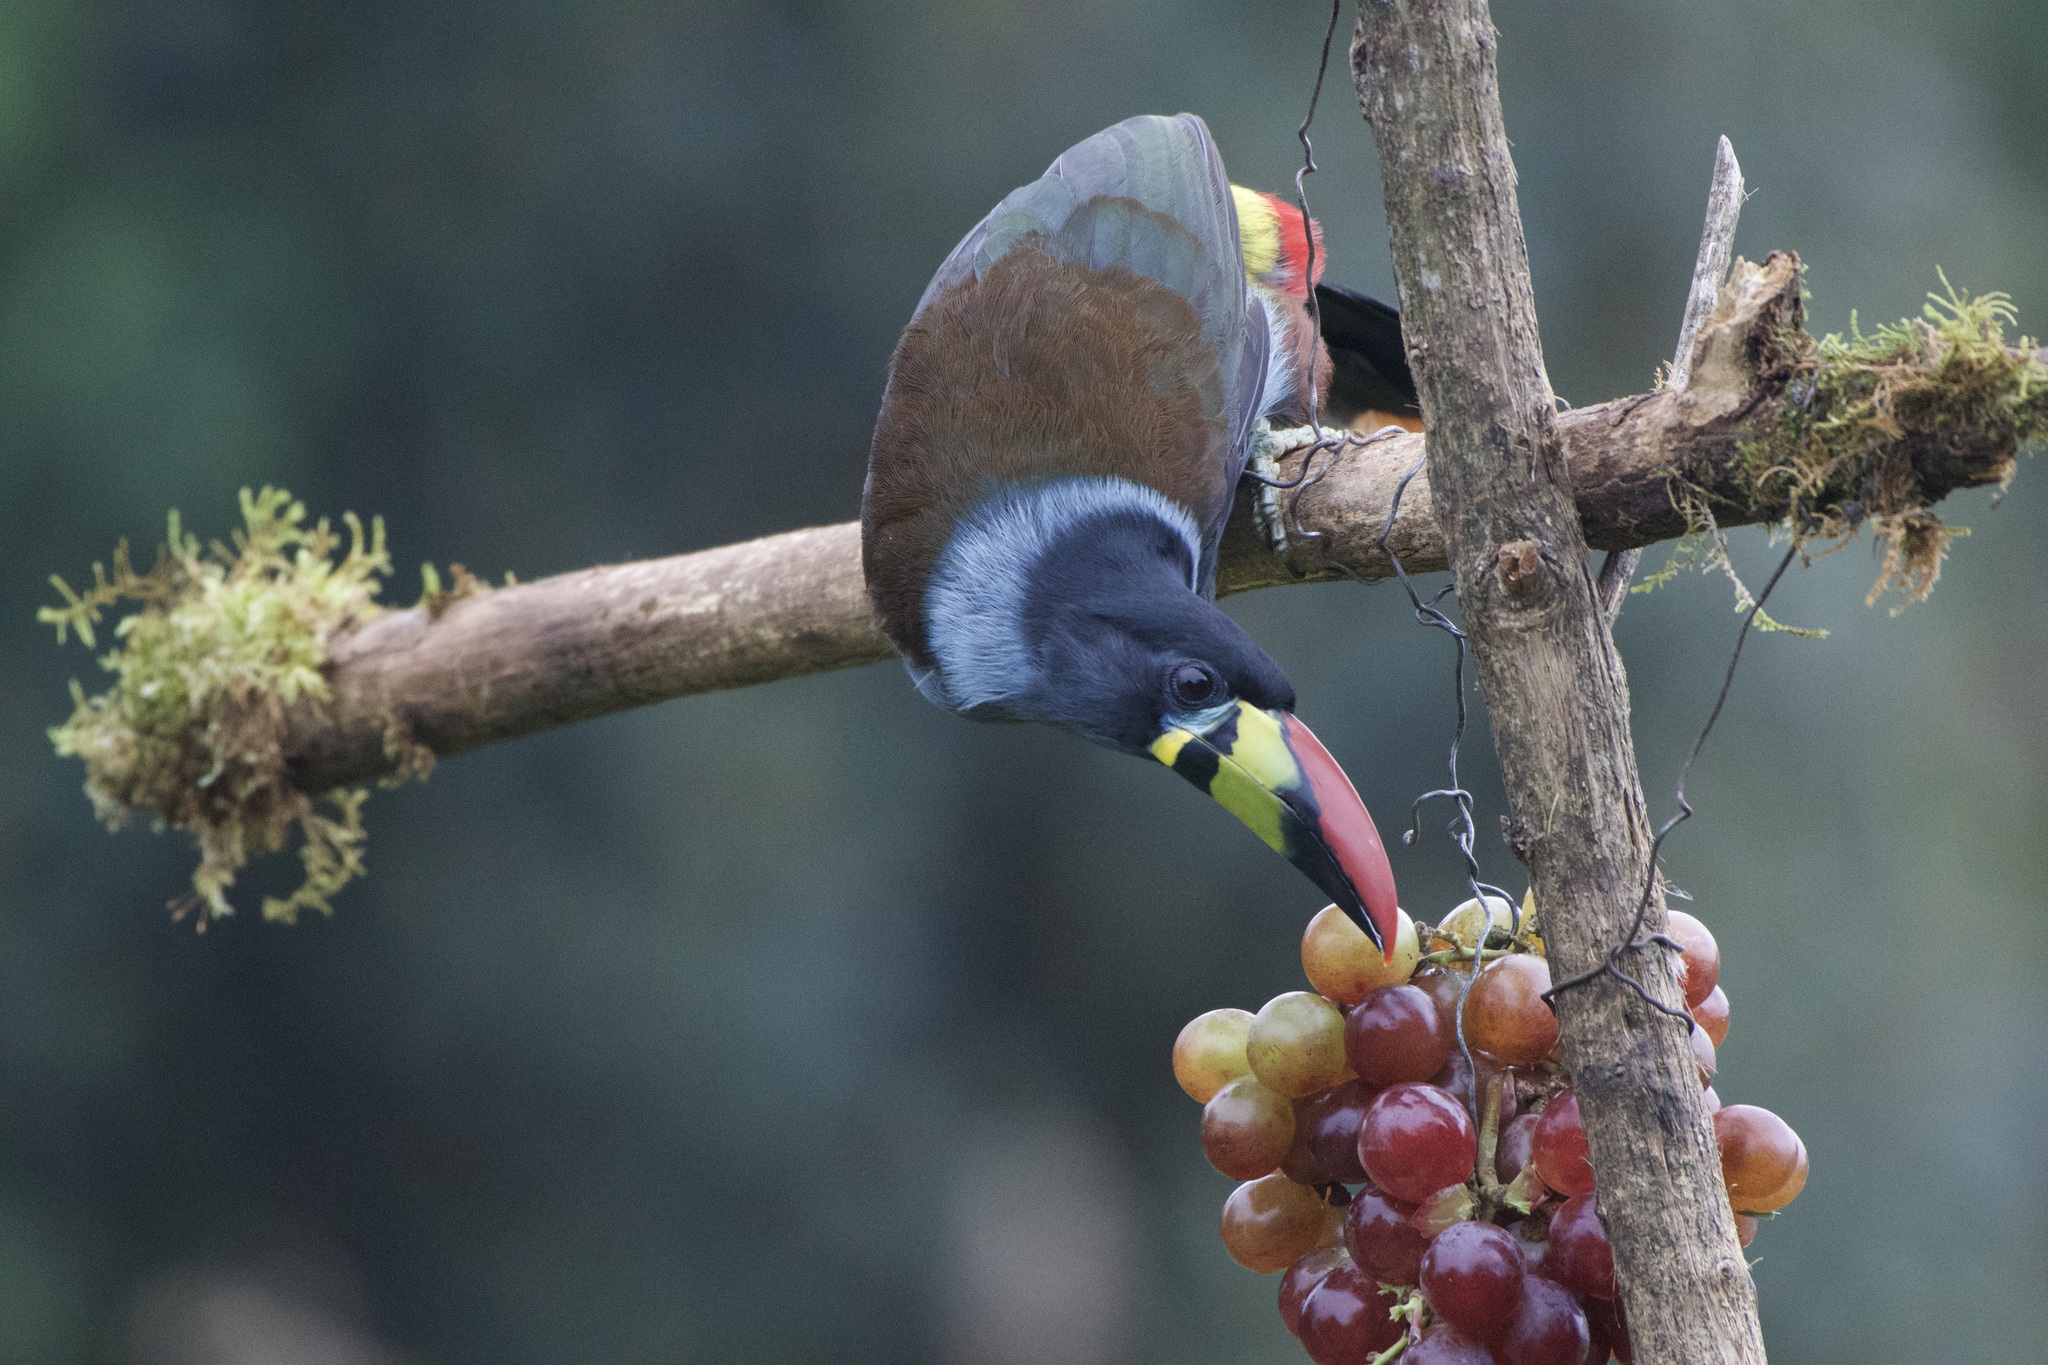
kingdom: Animalia
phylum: Chordata
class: Aves
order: Piciformes
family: Ramphastidae
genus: Andigena
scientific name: Andigena hypoglauca
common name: Grey-breasted mountain toucan
